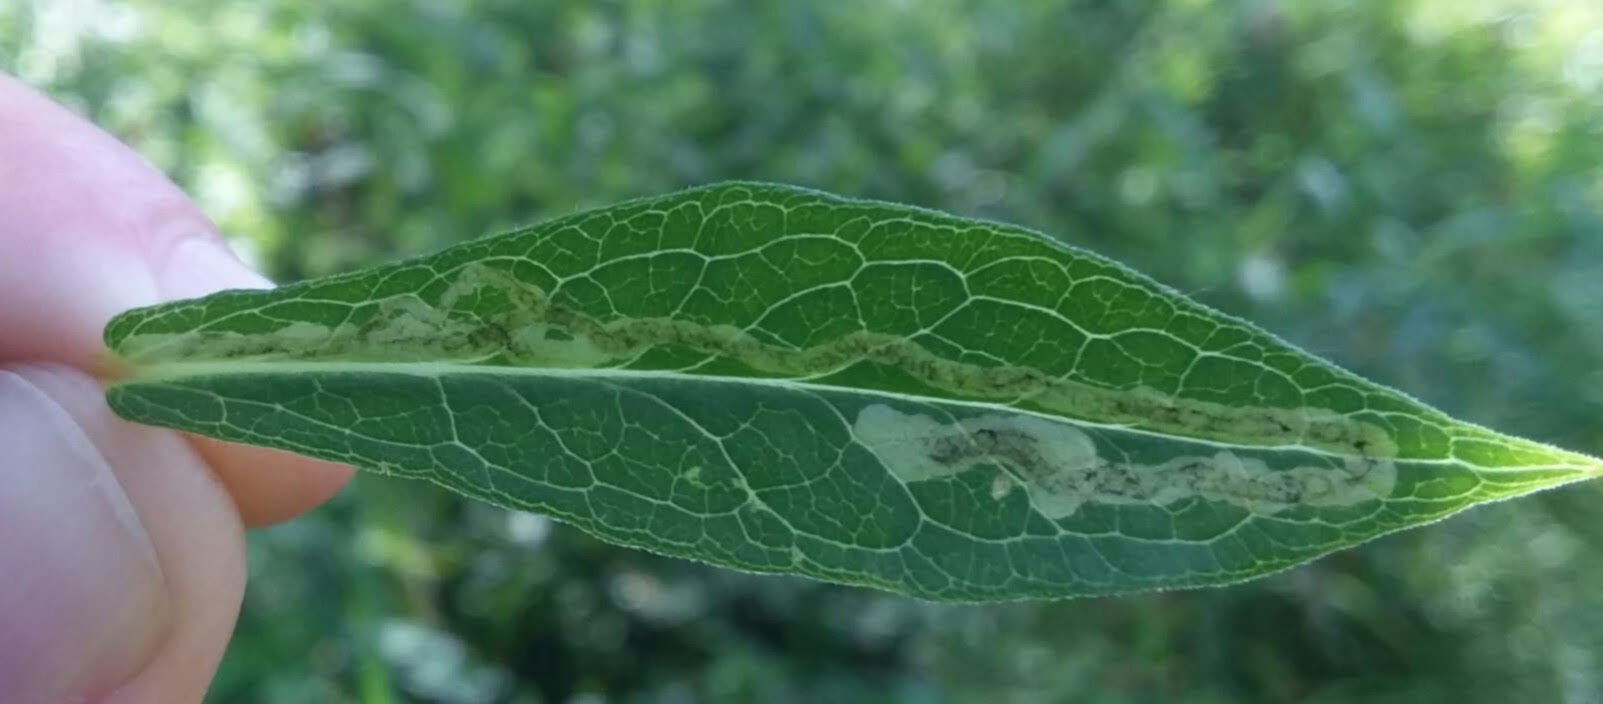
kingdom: Animalia
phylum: Arthropoda
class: Insecta
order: Diptera
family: Agromyzidae
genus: Liriomyza
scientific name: Liriomyza phloxiphaga
